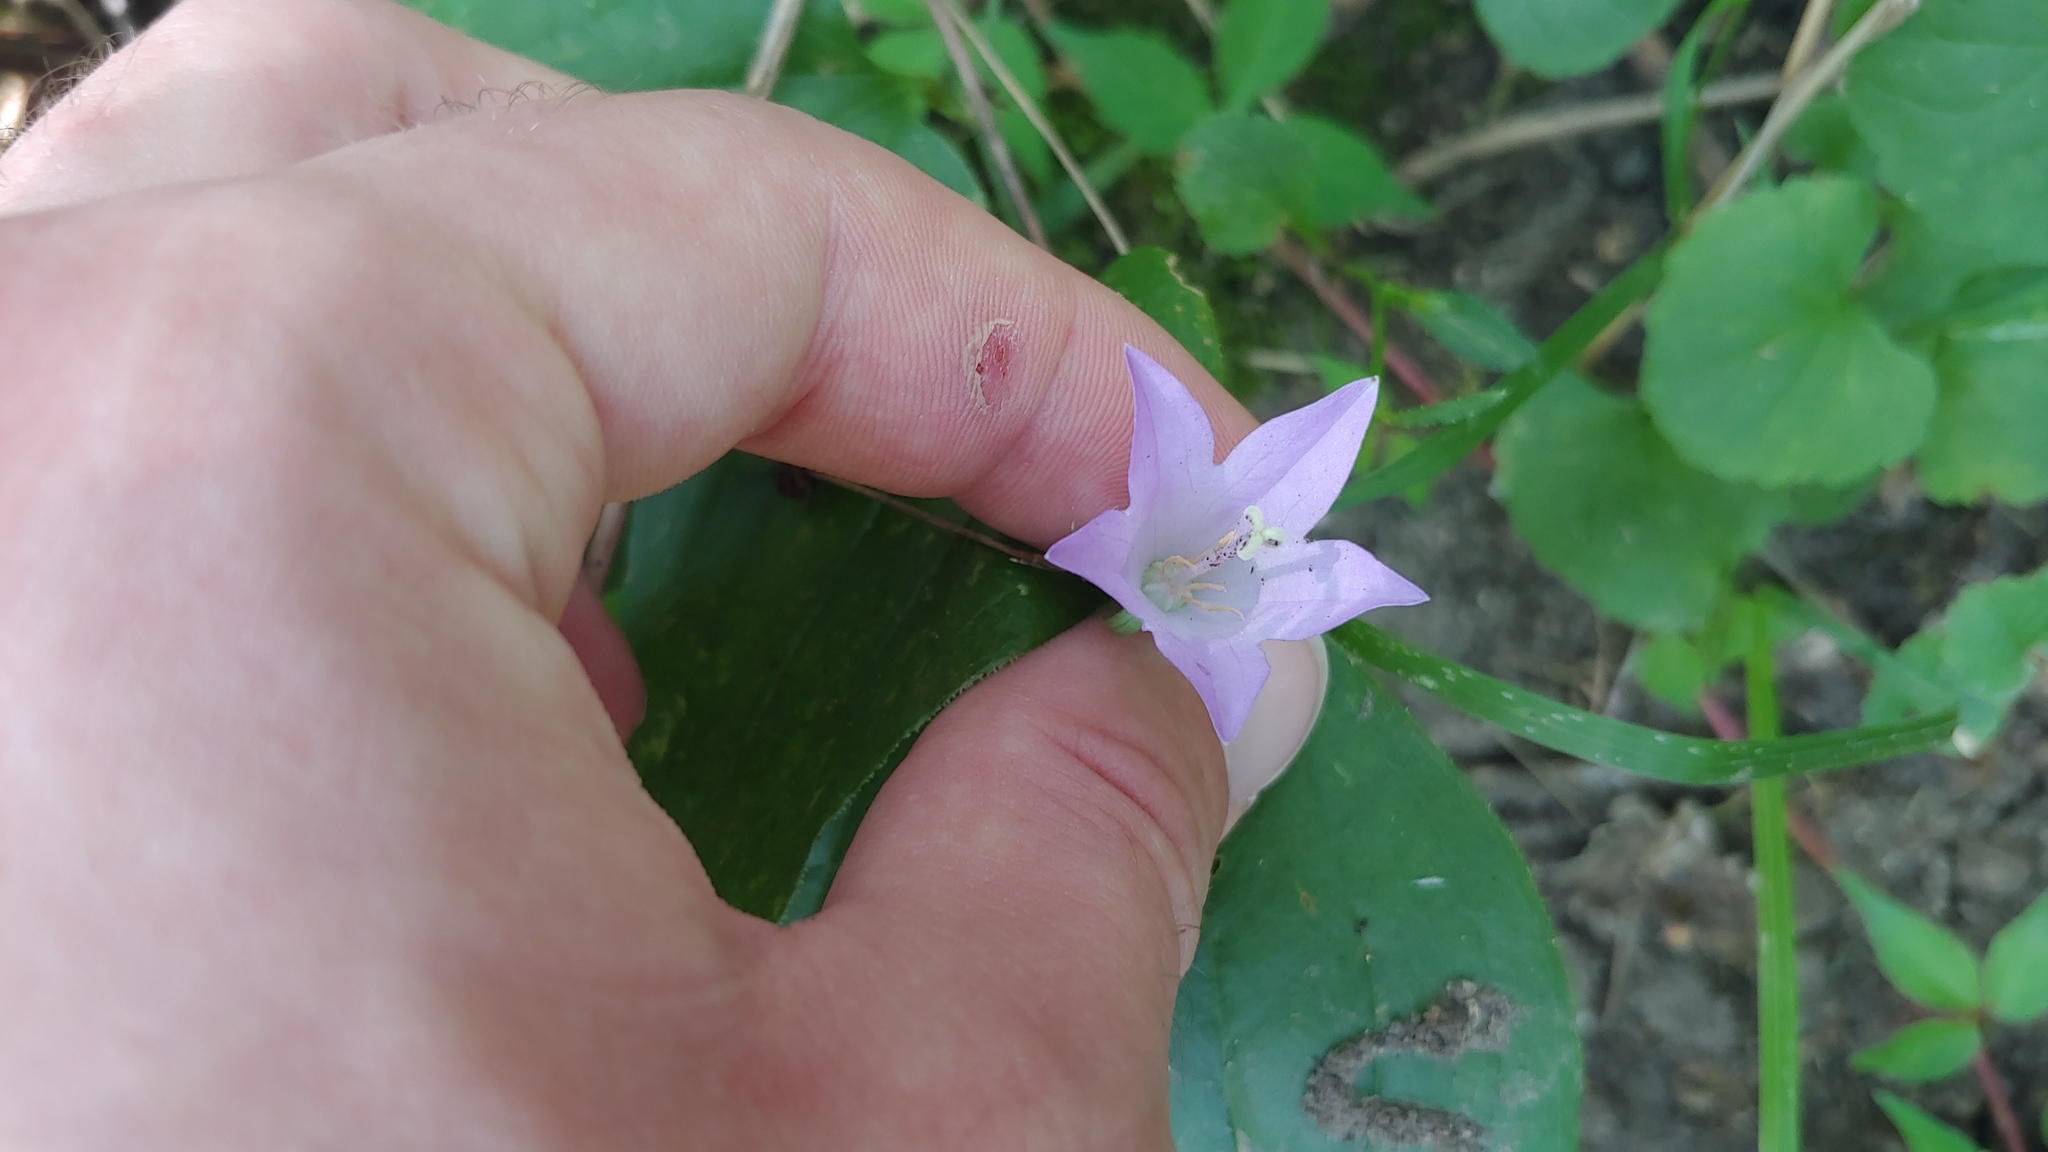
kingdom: Plantae
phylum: Tracheophyta
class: Magnoliopsida
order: Asterales
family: Campanulaceae
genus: Campanula
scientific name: Campanula rapunculoides
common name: Creeping bellflower
